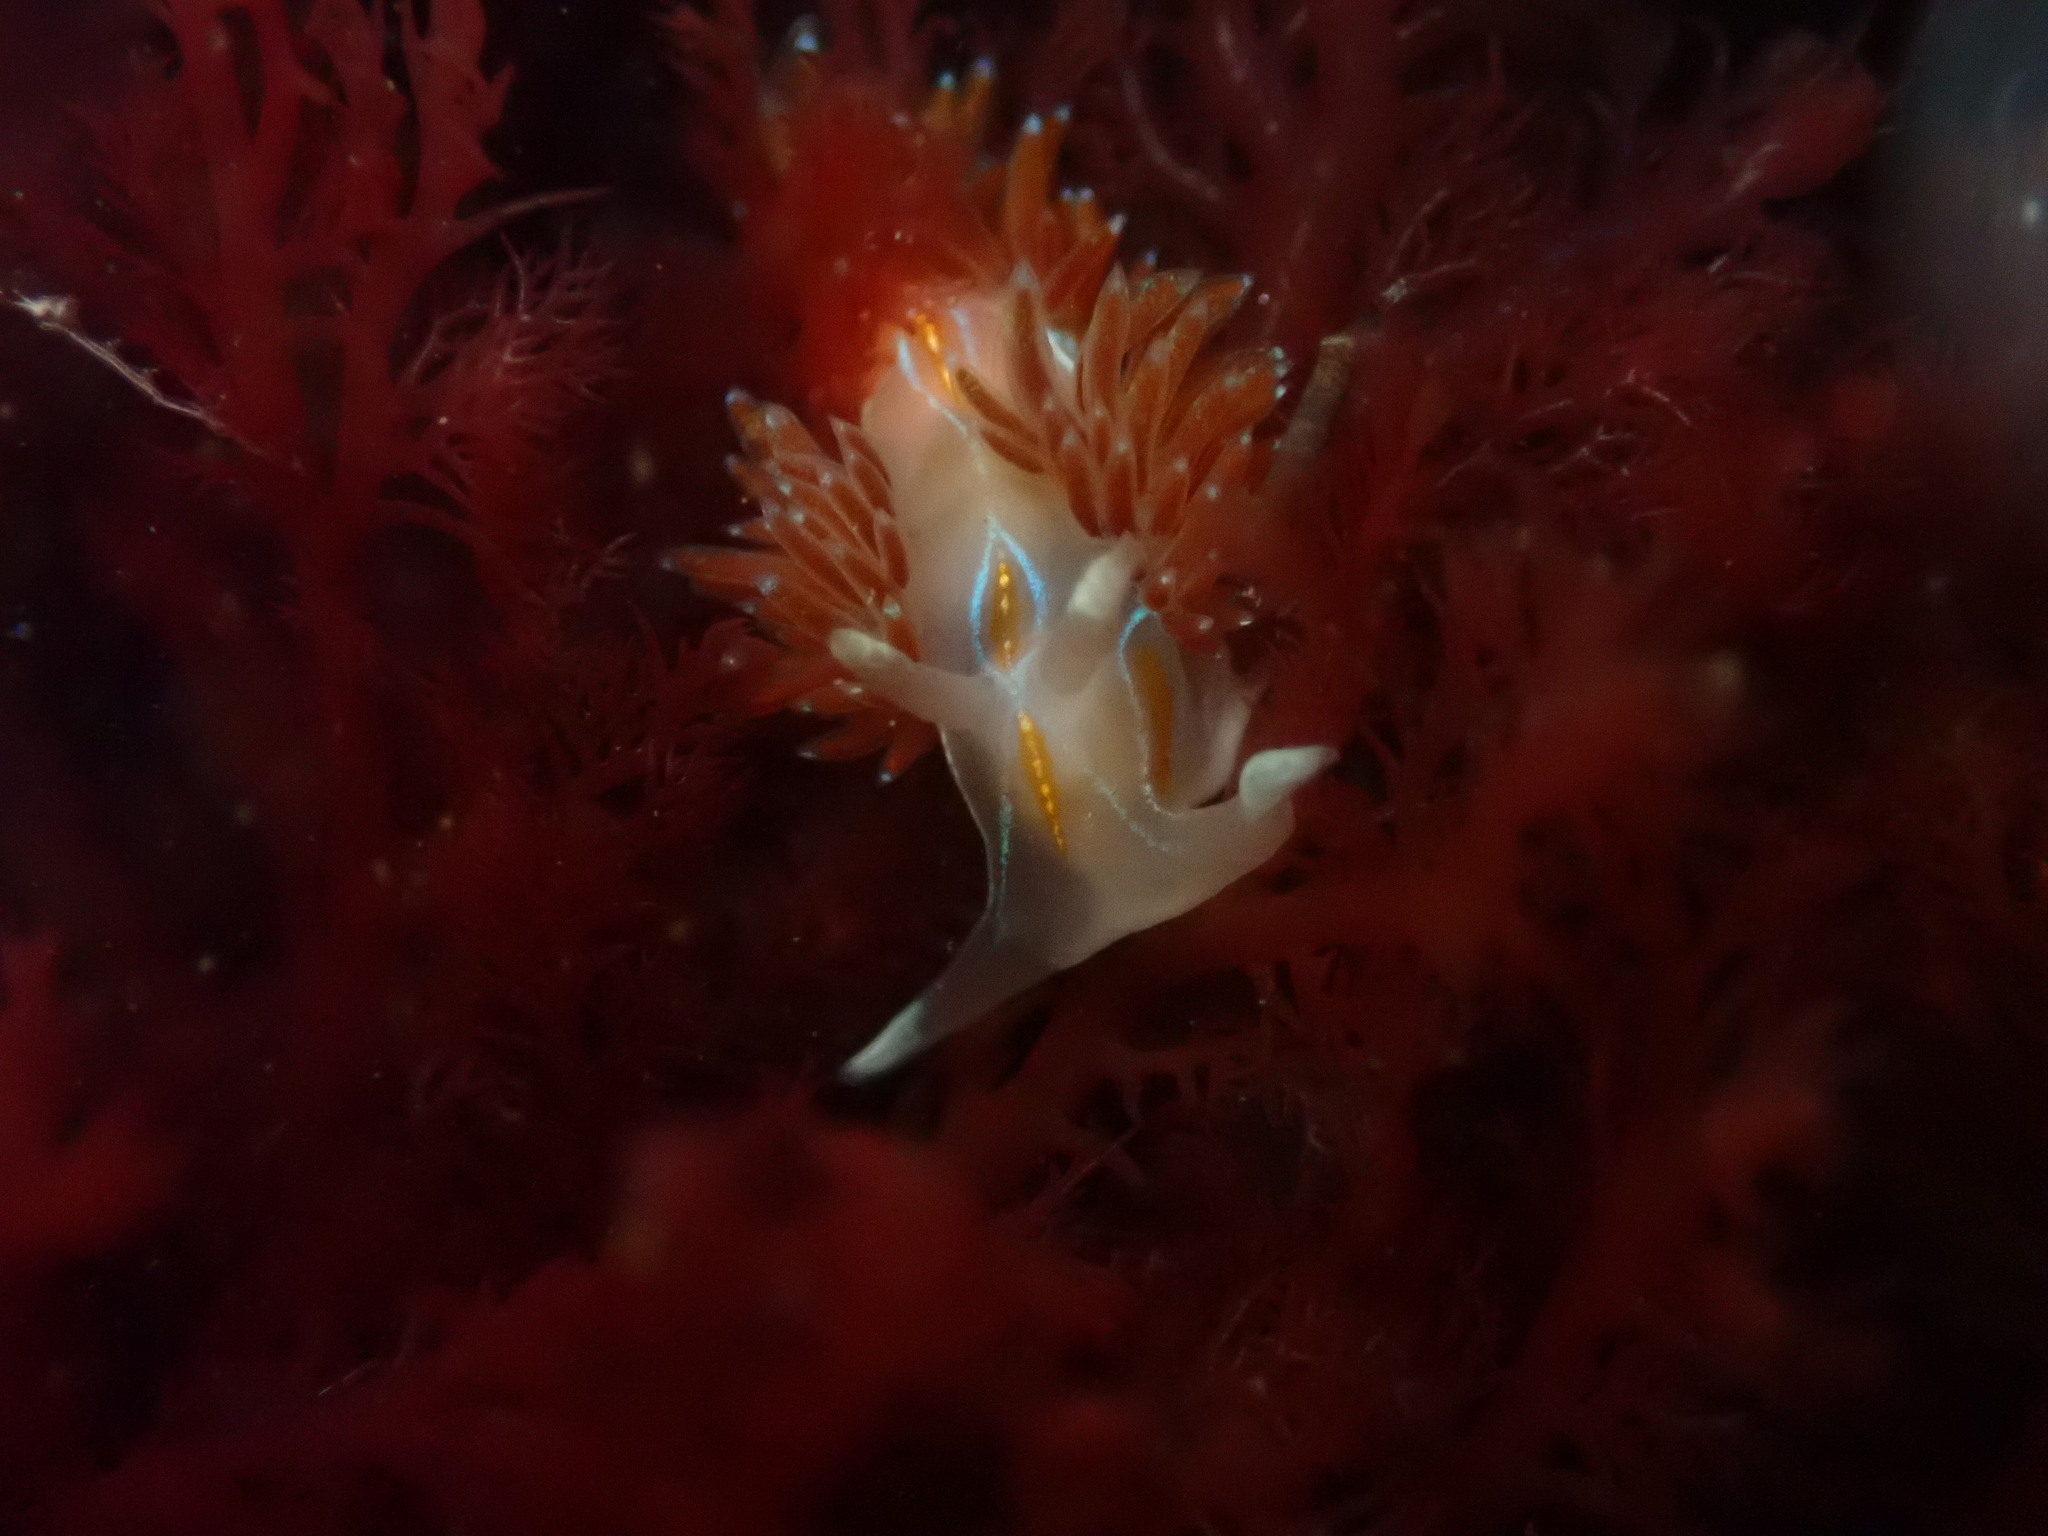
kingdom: Animalia
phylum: Mollusca
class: Gastropoda
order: Nudibranchia
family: Myrrhinidae
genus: Hermissenda
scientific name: Hermissenda opalescens
